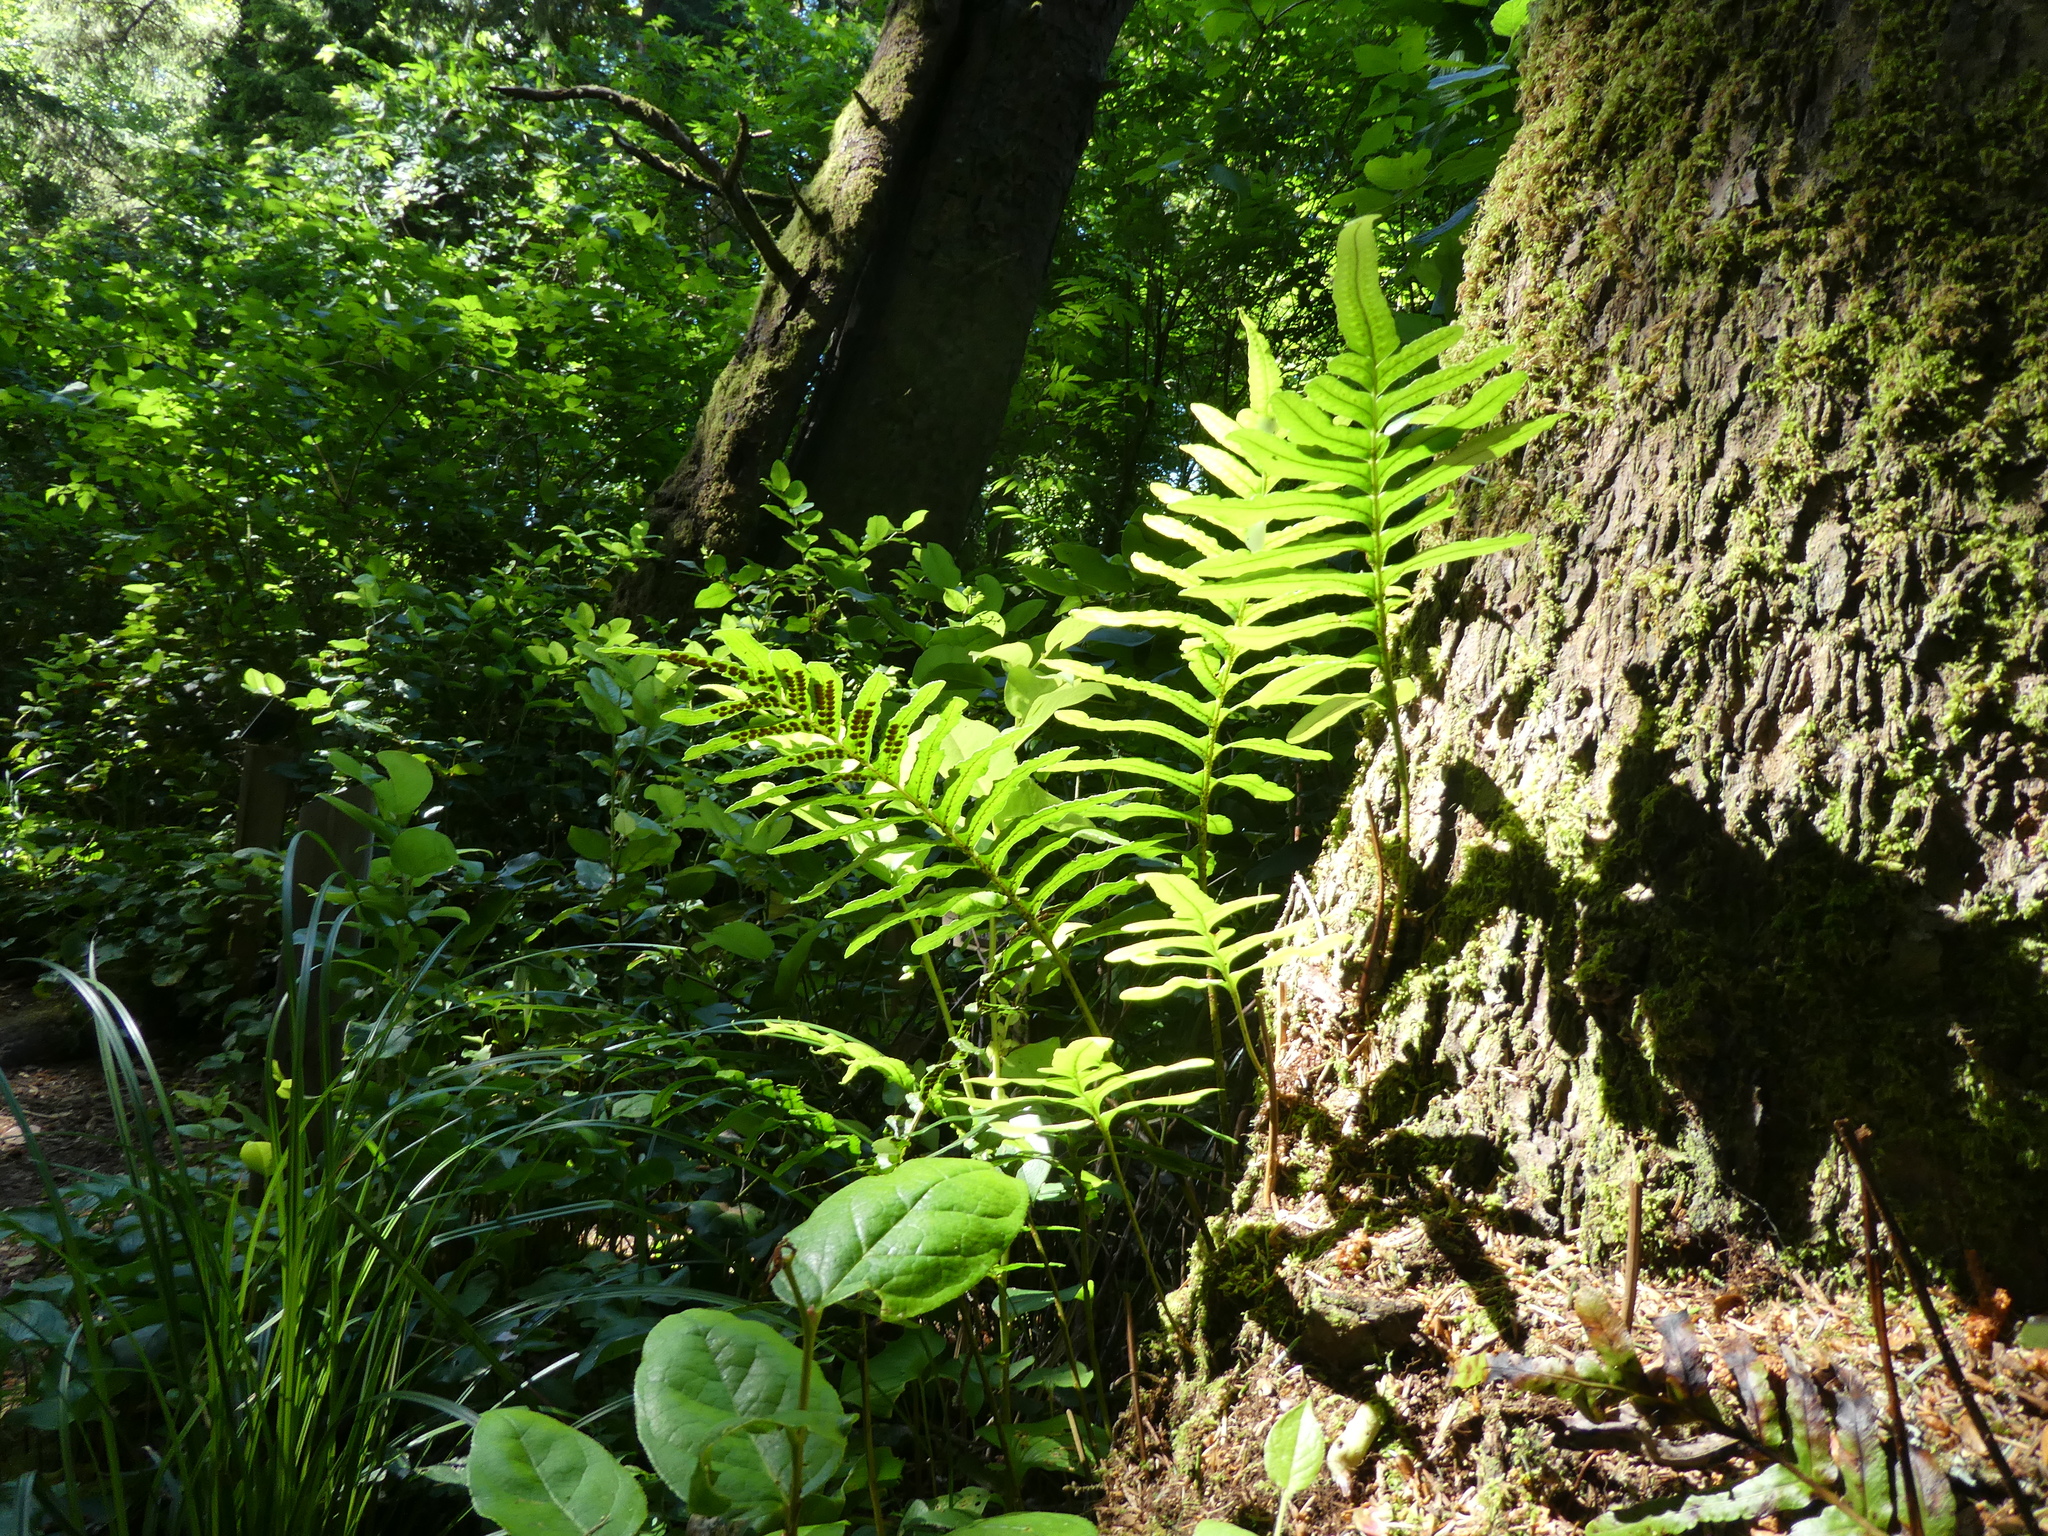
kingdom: Plantae
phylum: Tracheophyta
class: Polypodiopsida
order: Polypodiales
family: Polypodiaceae
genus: Polypodium
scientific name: Polypodium scouleri
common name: Scouler's polypody
